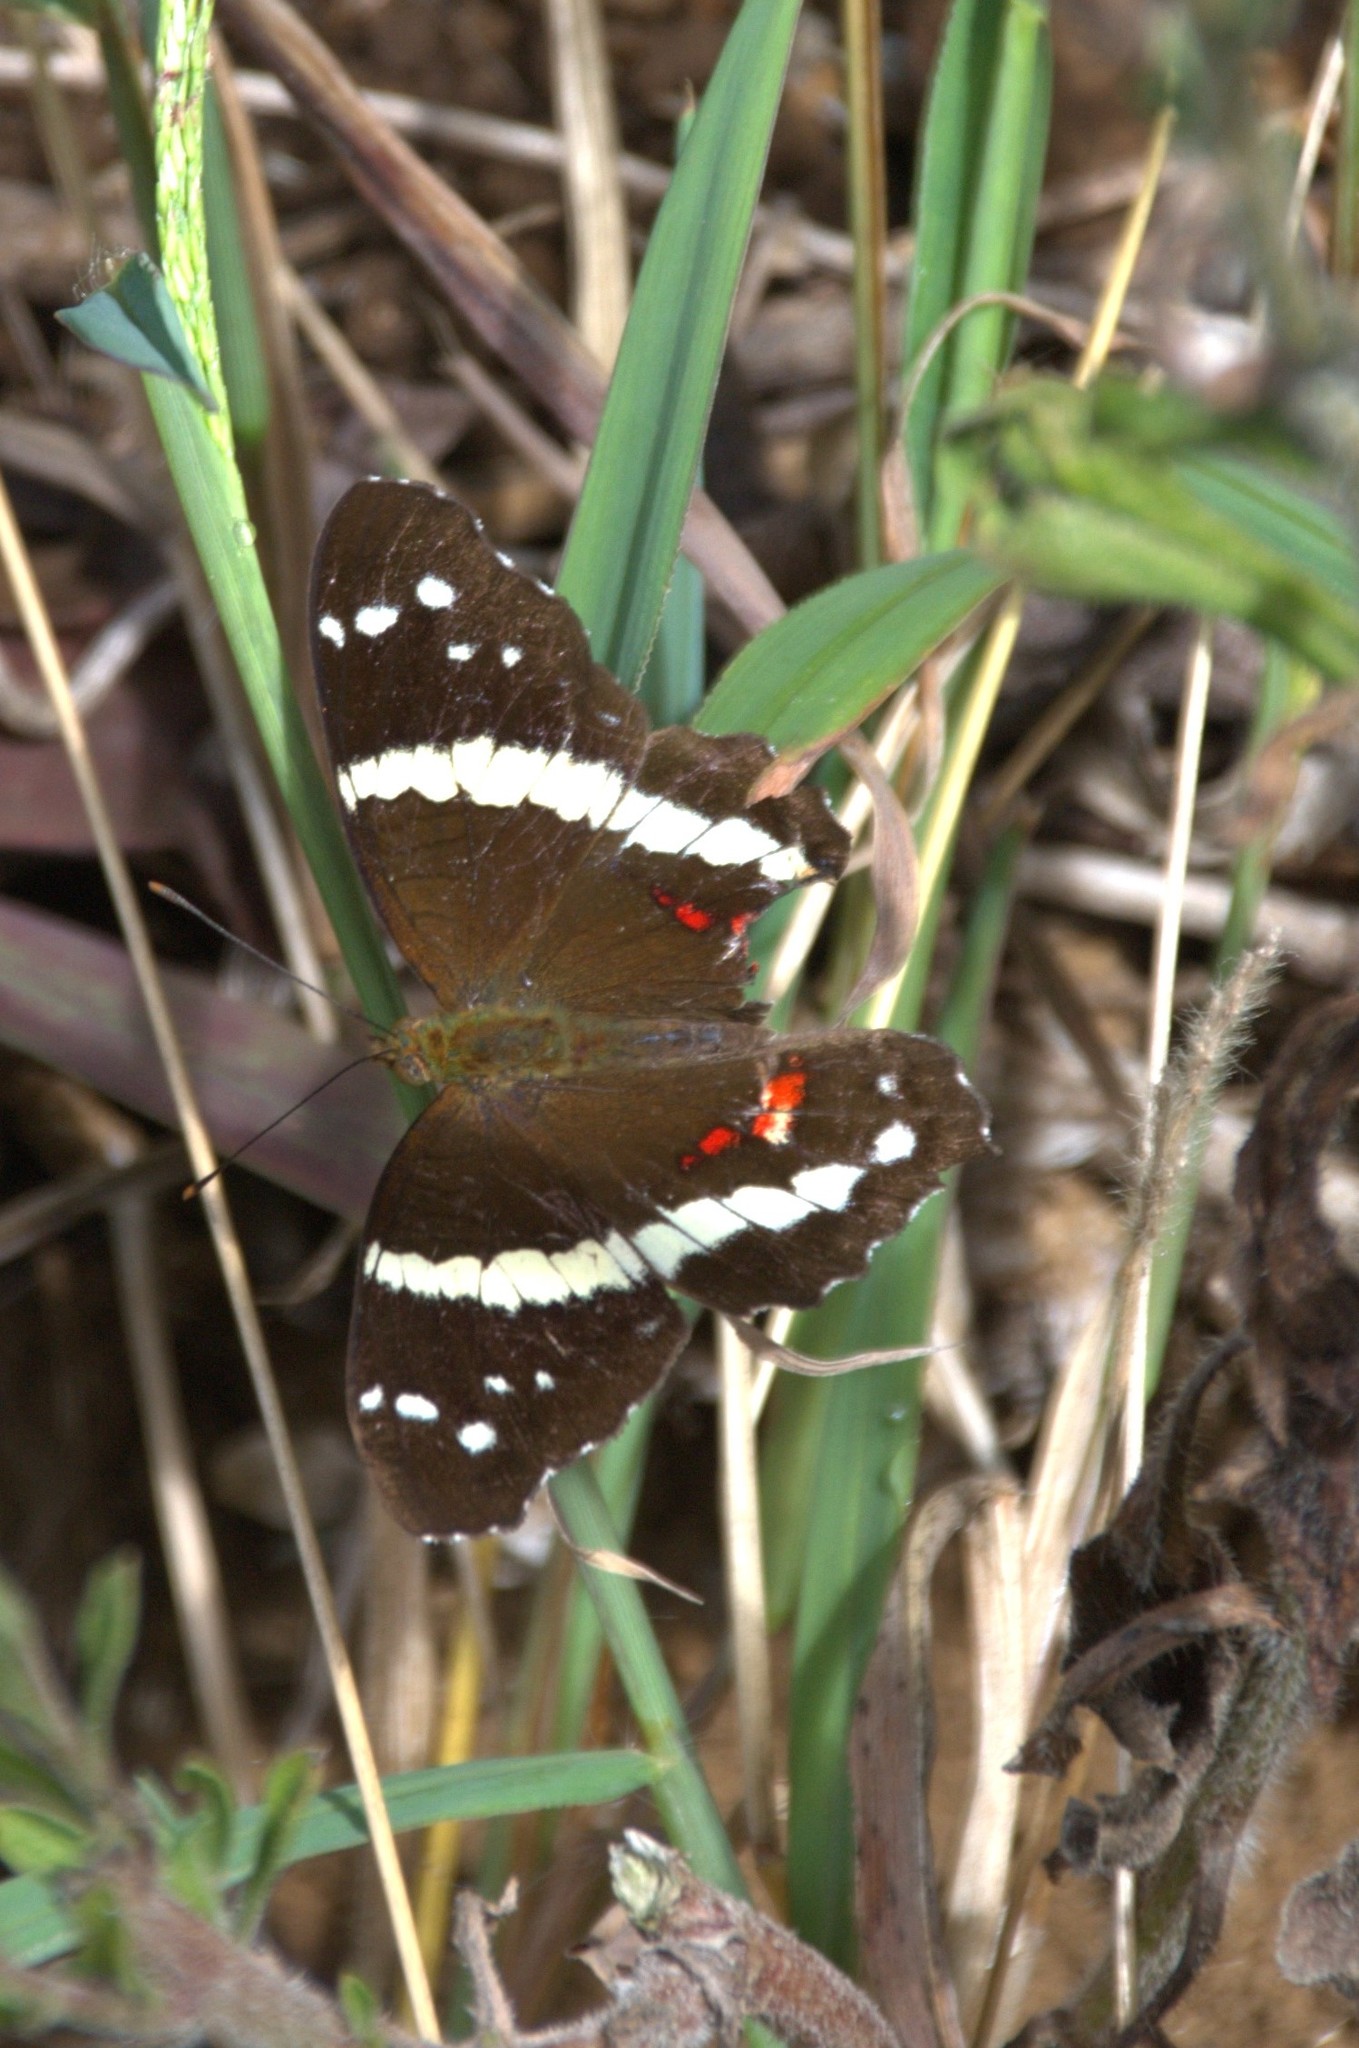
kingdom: Animalia
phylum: Arthropoda
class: Insecta
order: Lepidoptera
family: Nymphalidae
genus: Anartia
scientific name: Anartia fatima
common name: Banded peacock
